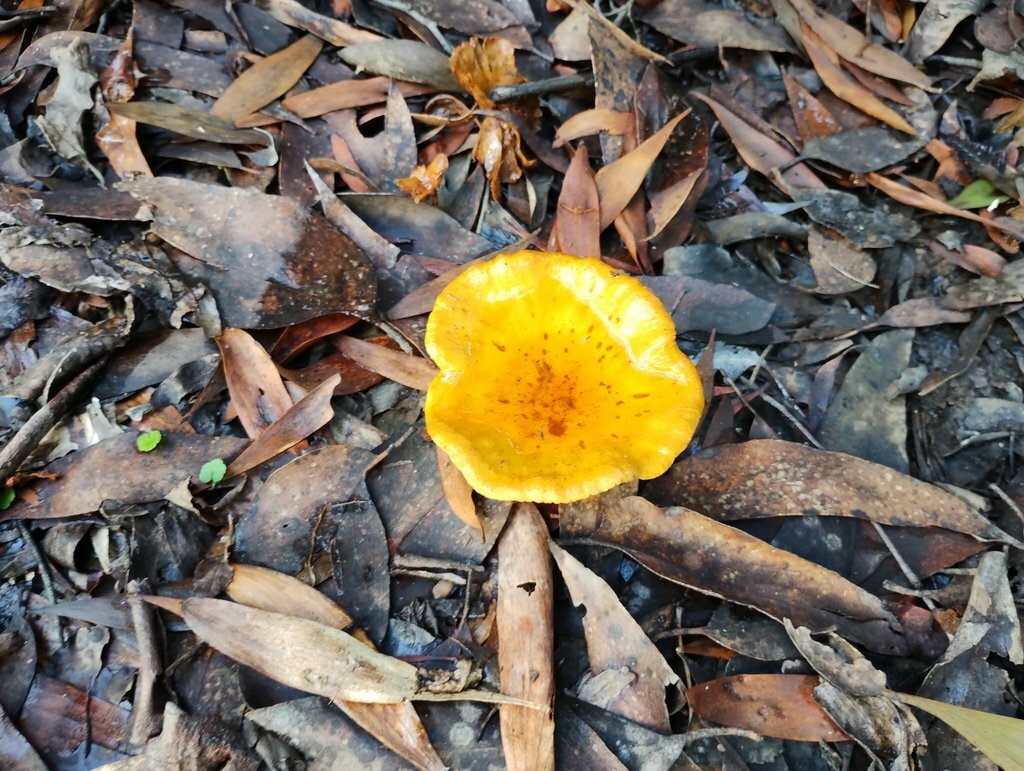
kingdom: Fungi
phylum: Basidiomycota
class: Agaricomycetes
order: Boletales
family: Serpulaceae
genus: Austropaxillus
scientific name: Austropaxillus infundibuliformis
